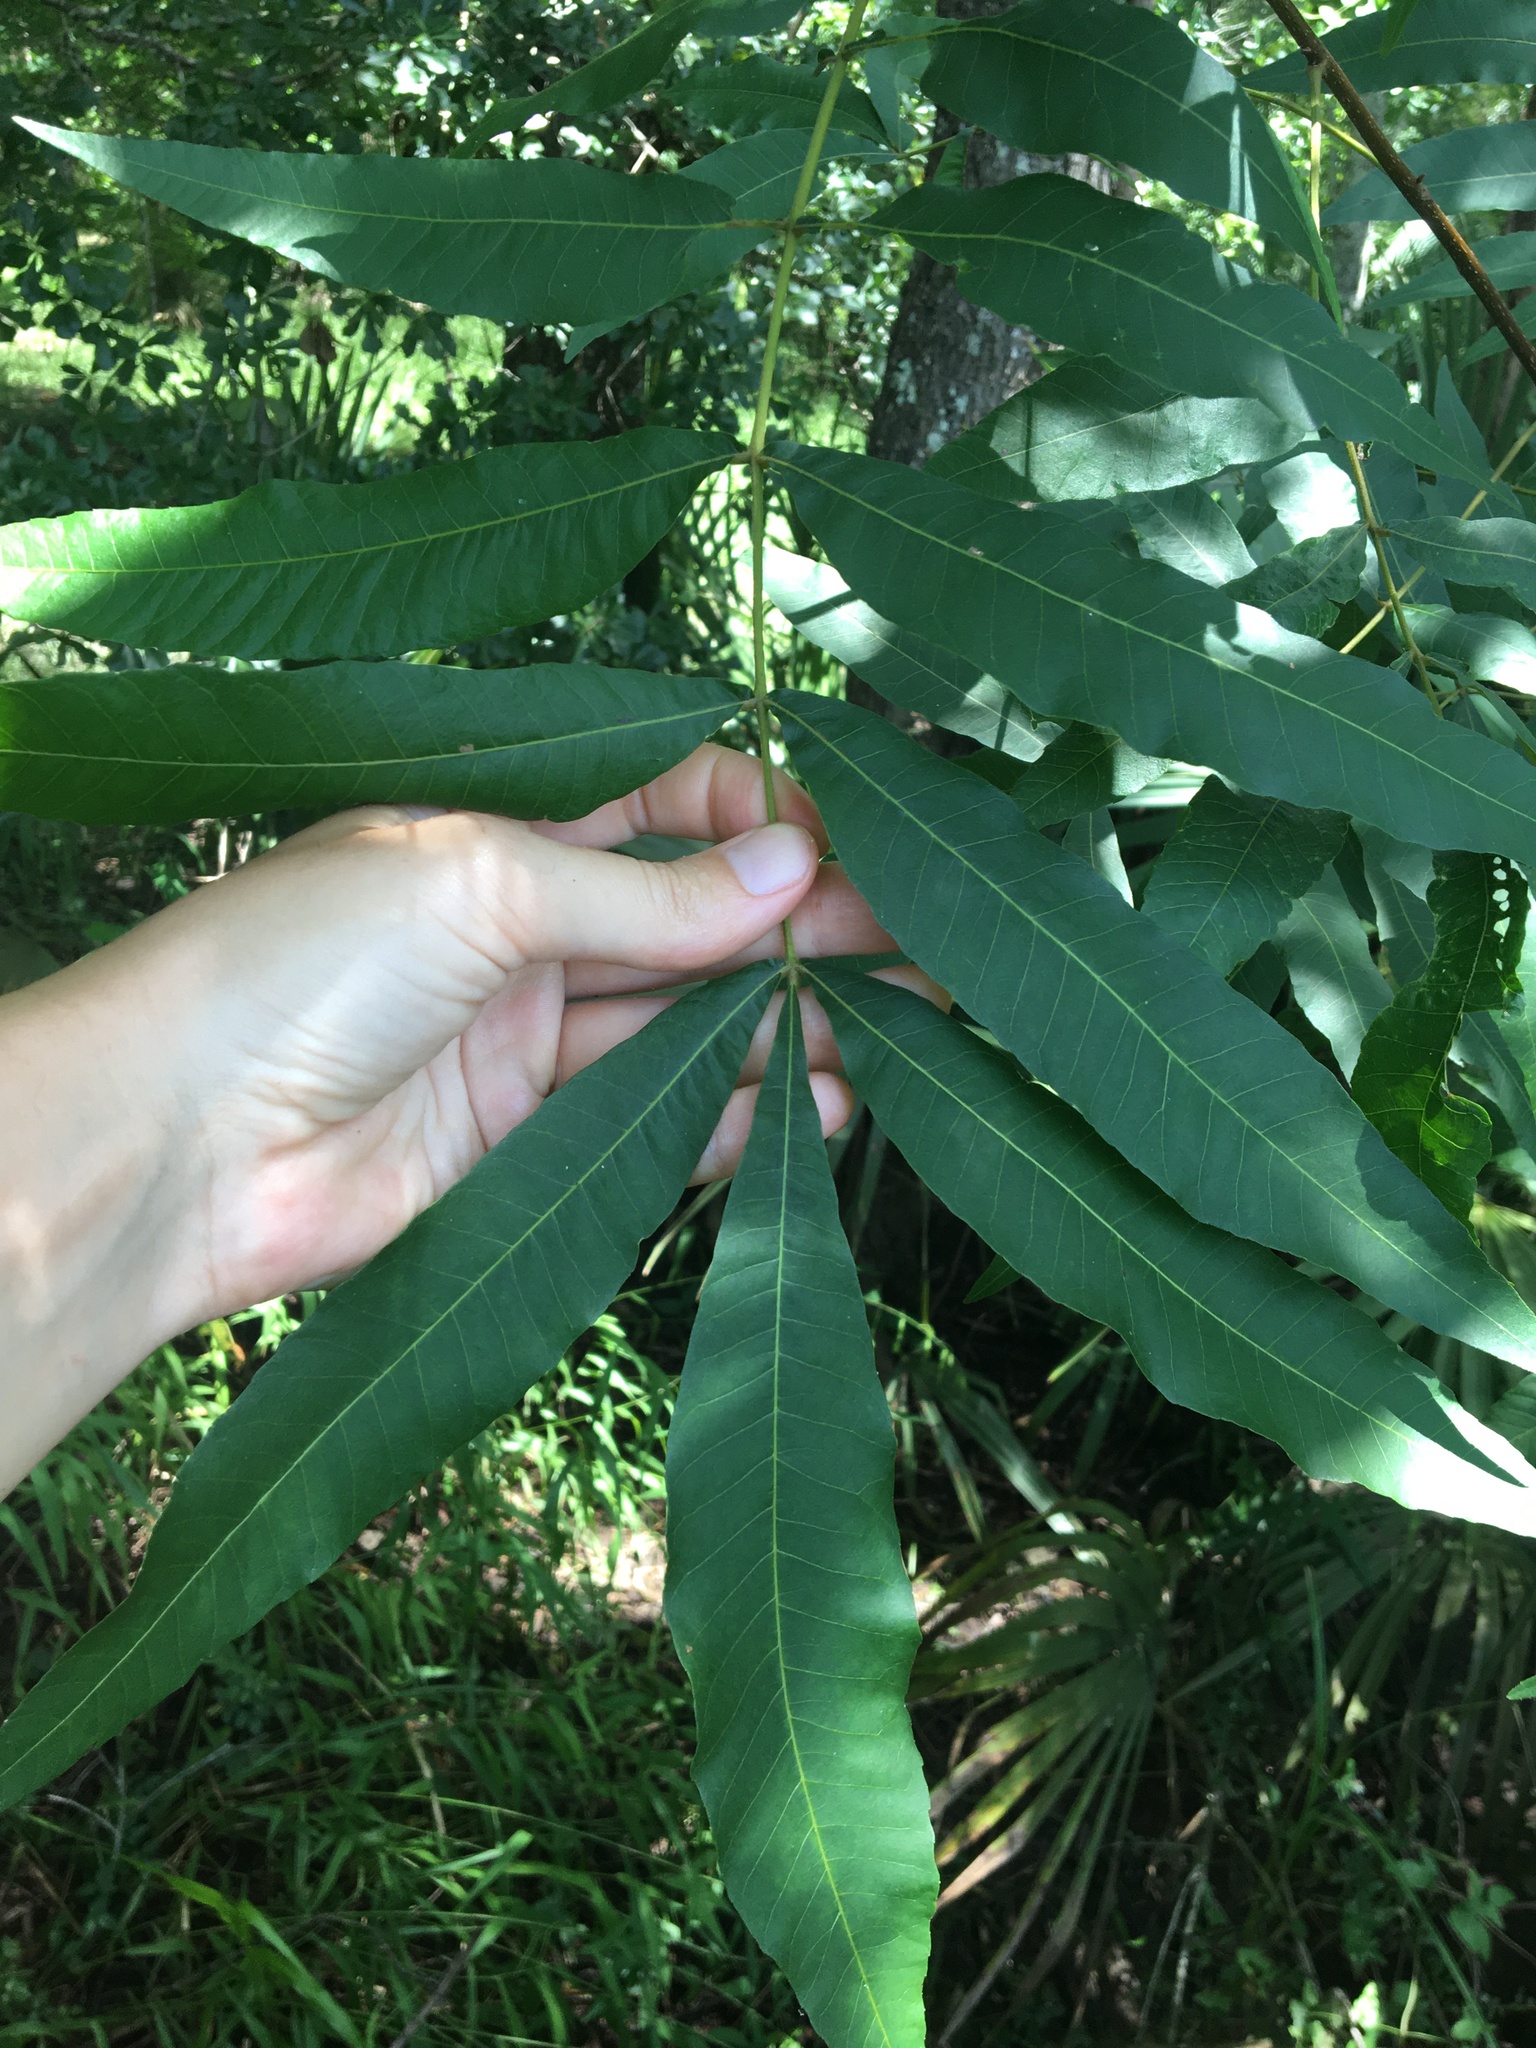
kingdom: Plantae
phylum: Tracheophyta
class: Magnoliopsida
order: Fagales
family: Juglandaceae
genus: Carya
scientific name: Carya aquatica
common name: Water hickory
